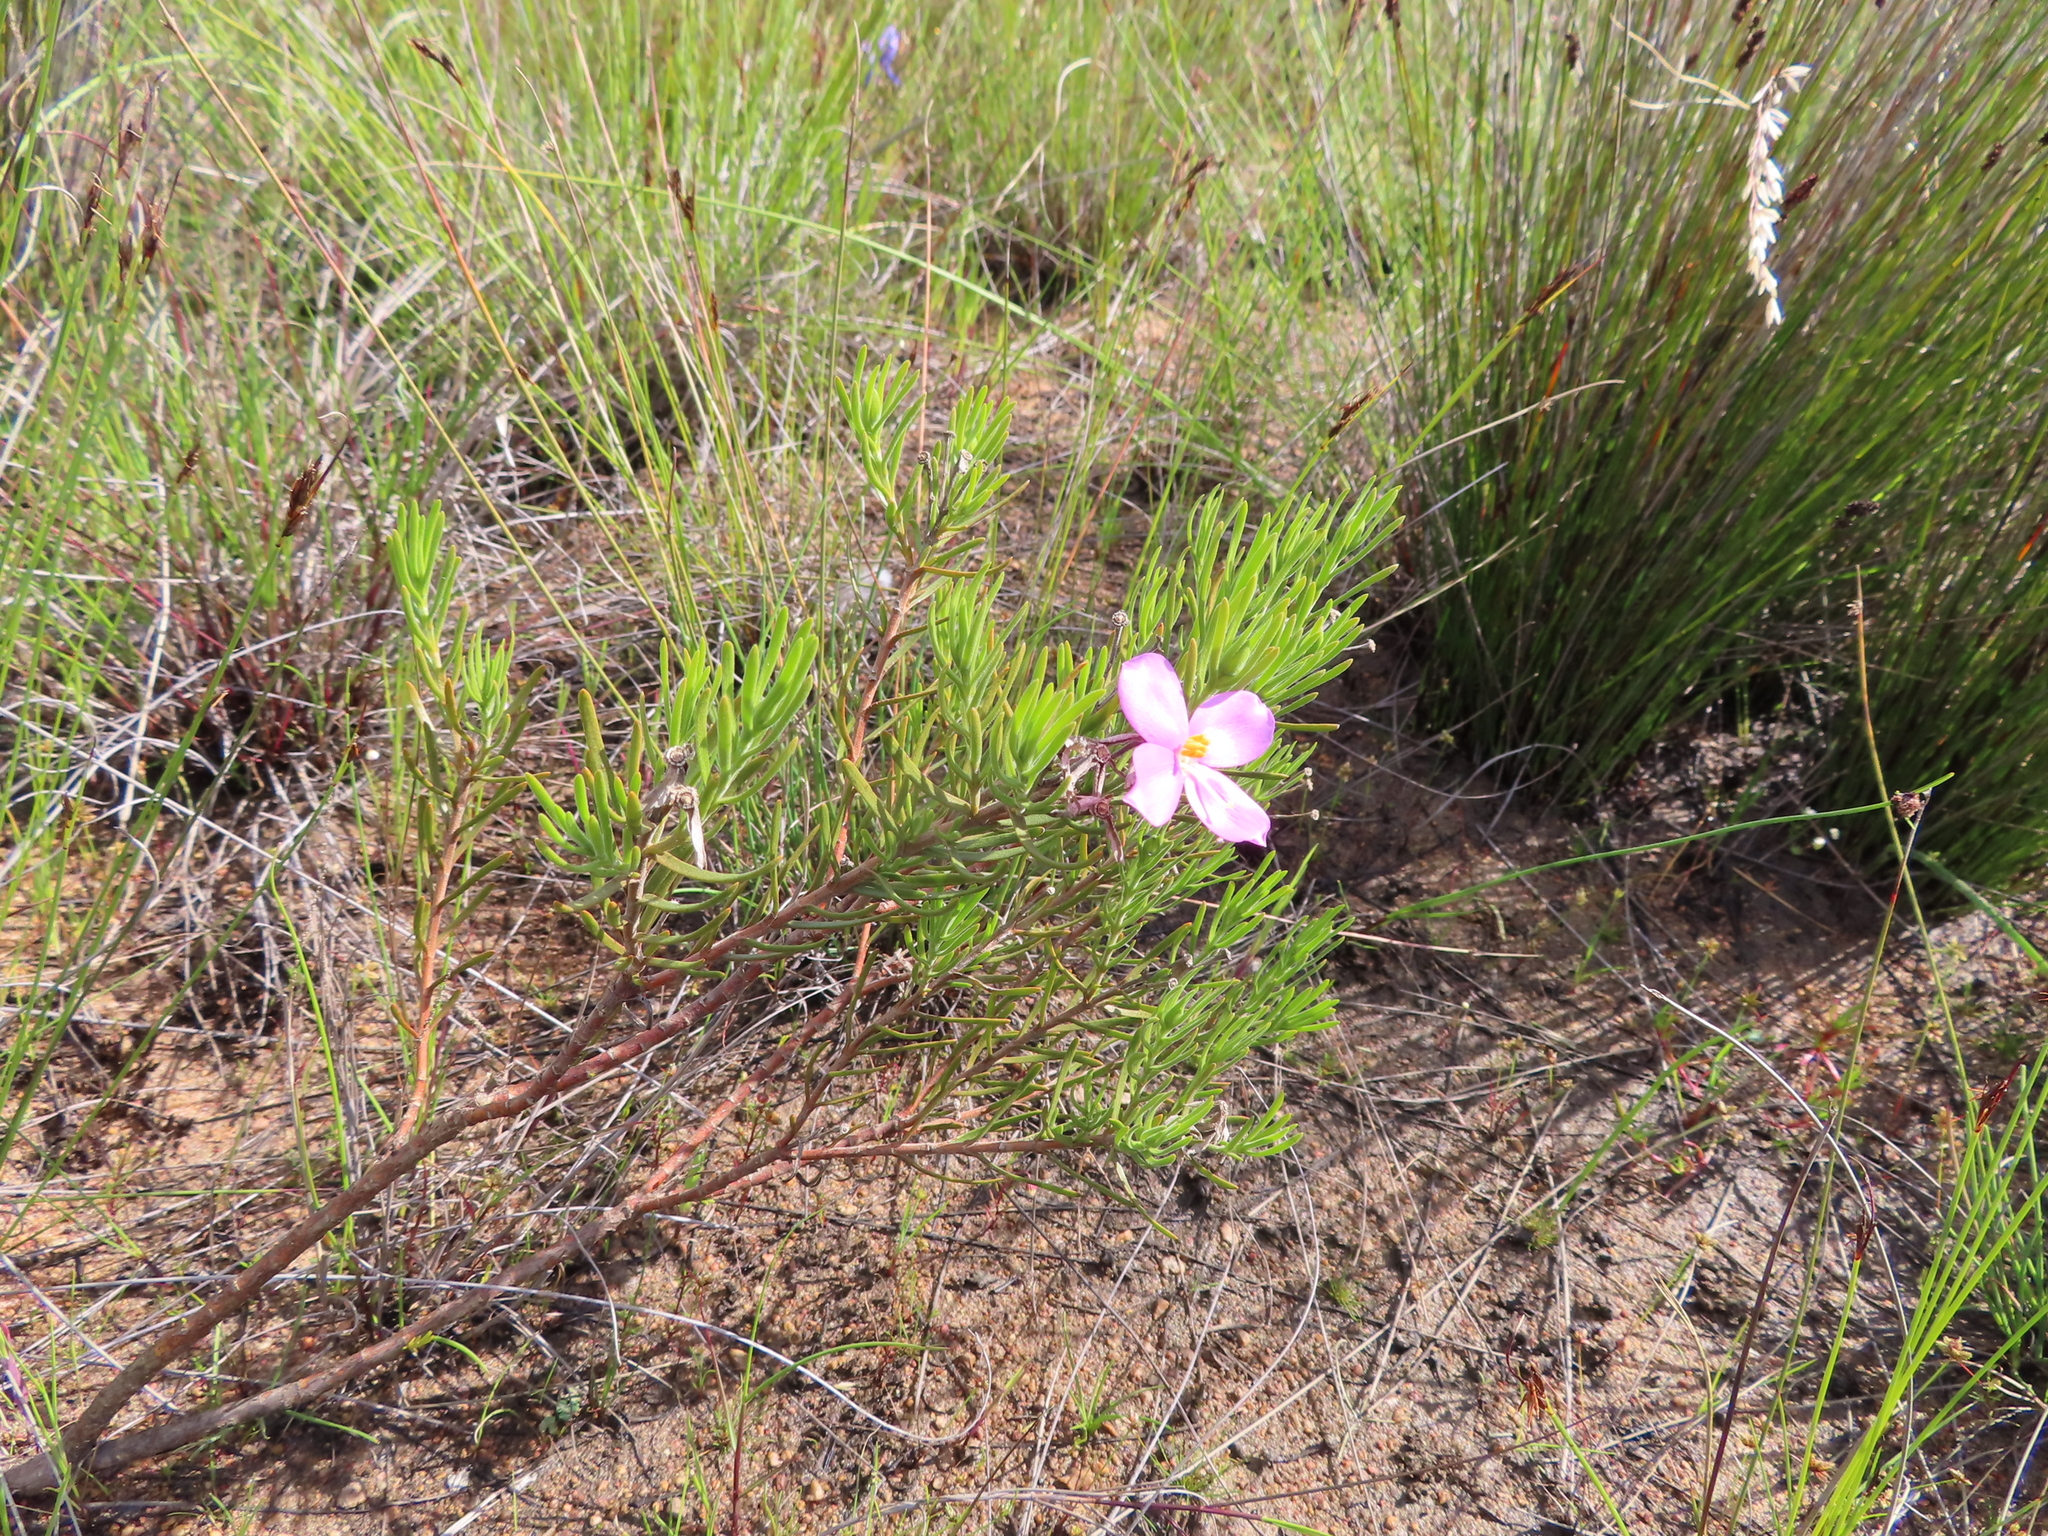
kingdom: Plantae
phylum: Tracheophyta
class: Magnoliopsida
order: Gentianales
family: Gentianaceae
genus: Orphium
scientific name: Orphium frutescens
